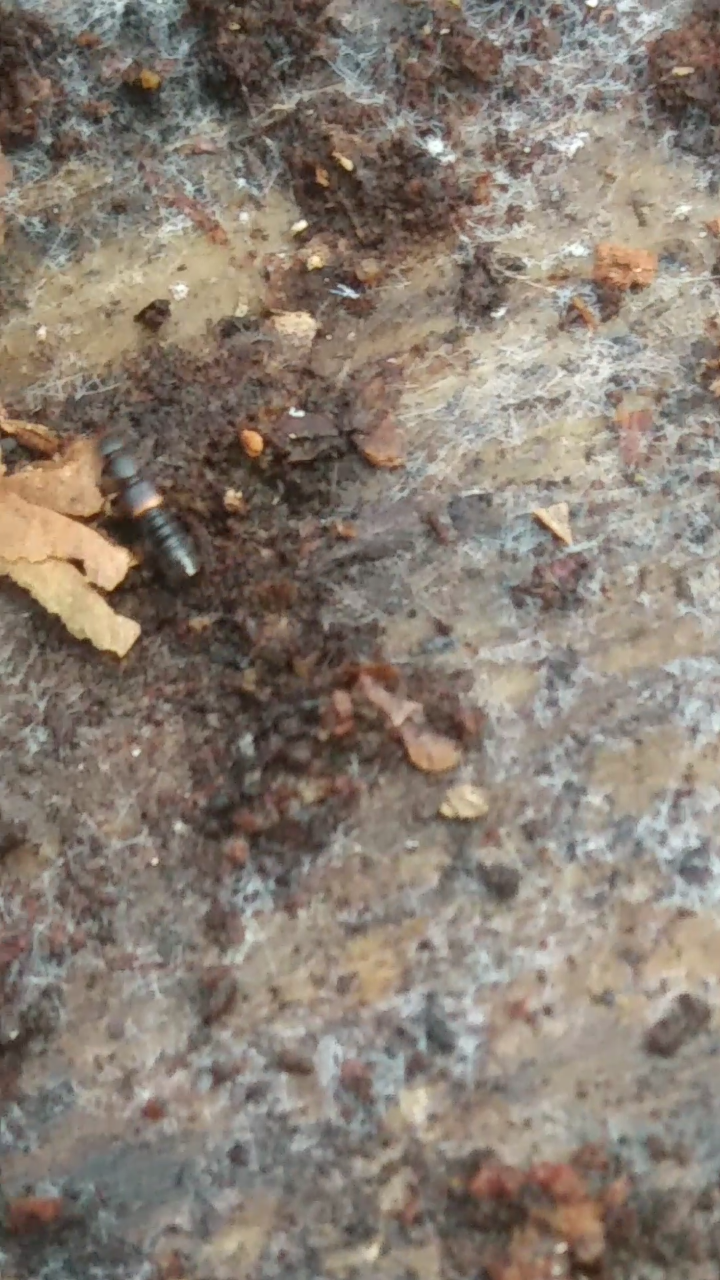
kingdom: Animalia
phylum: Arthropoda
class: Insecta
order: Coleoptera
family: Staphylinidae
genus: Sunius
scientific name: Sunius confluentus
